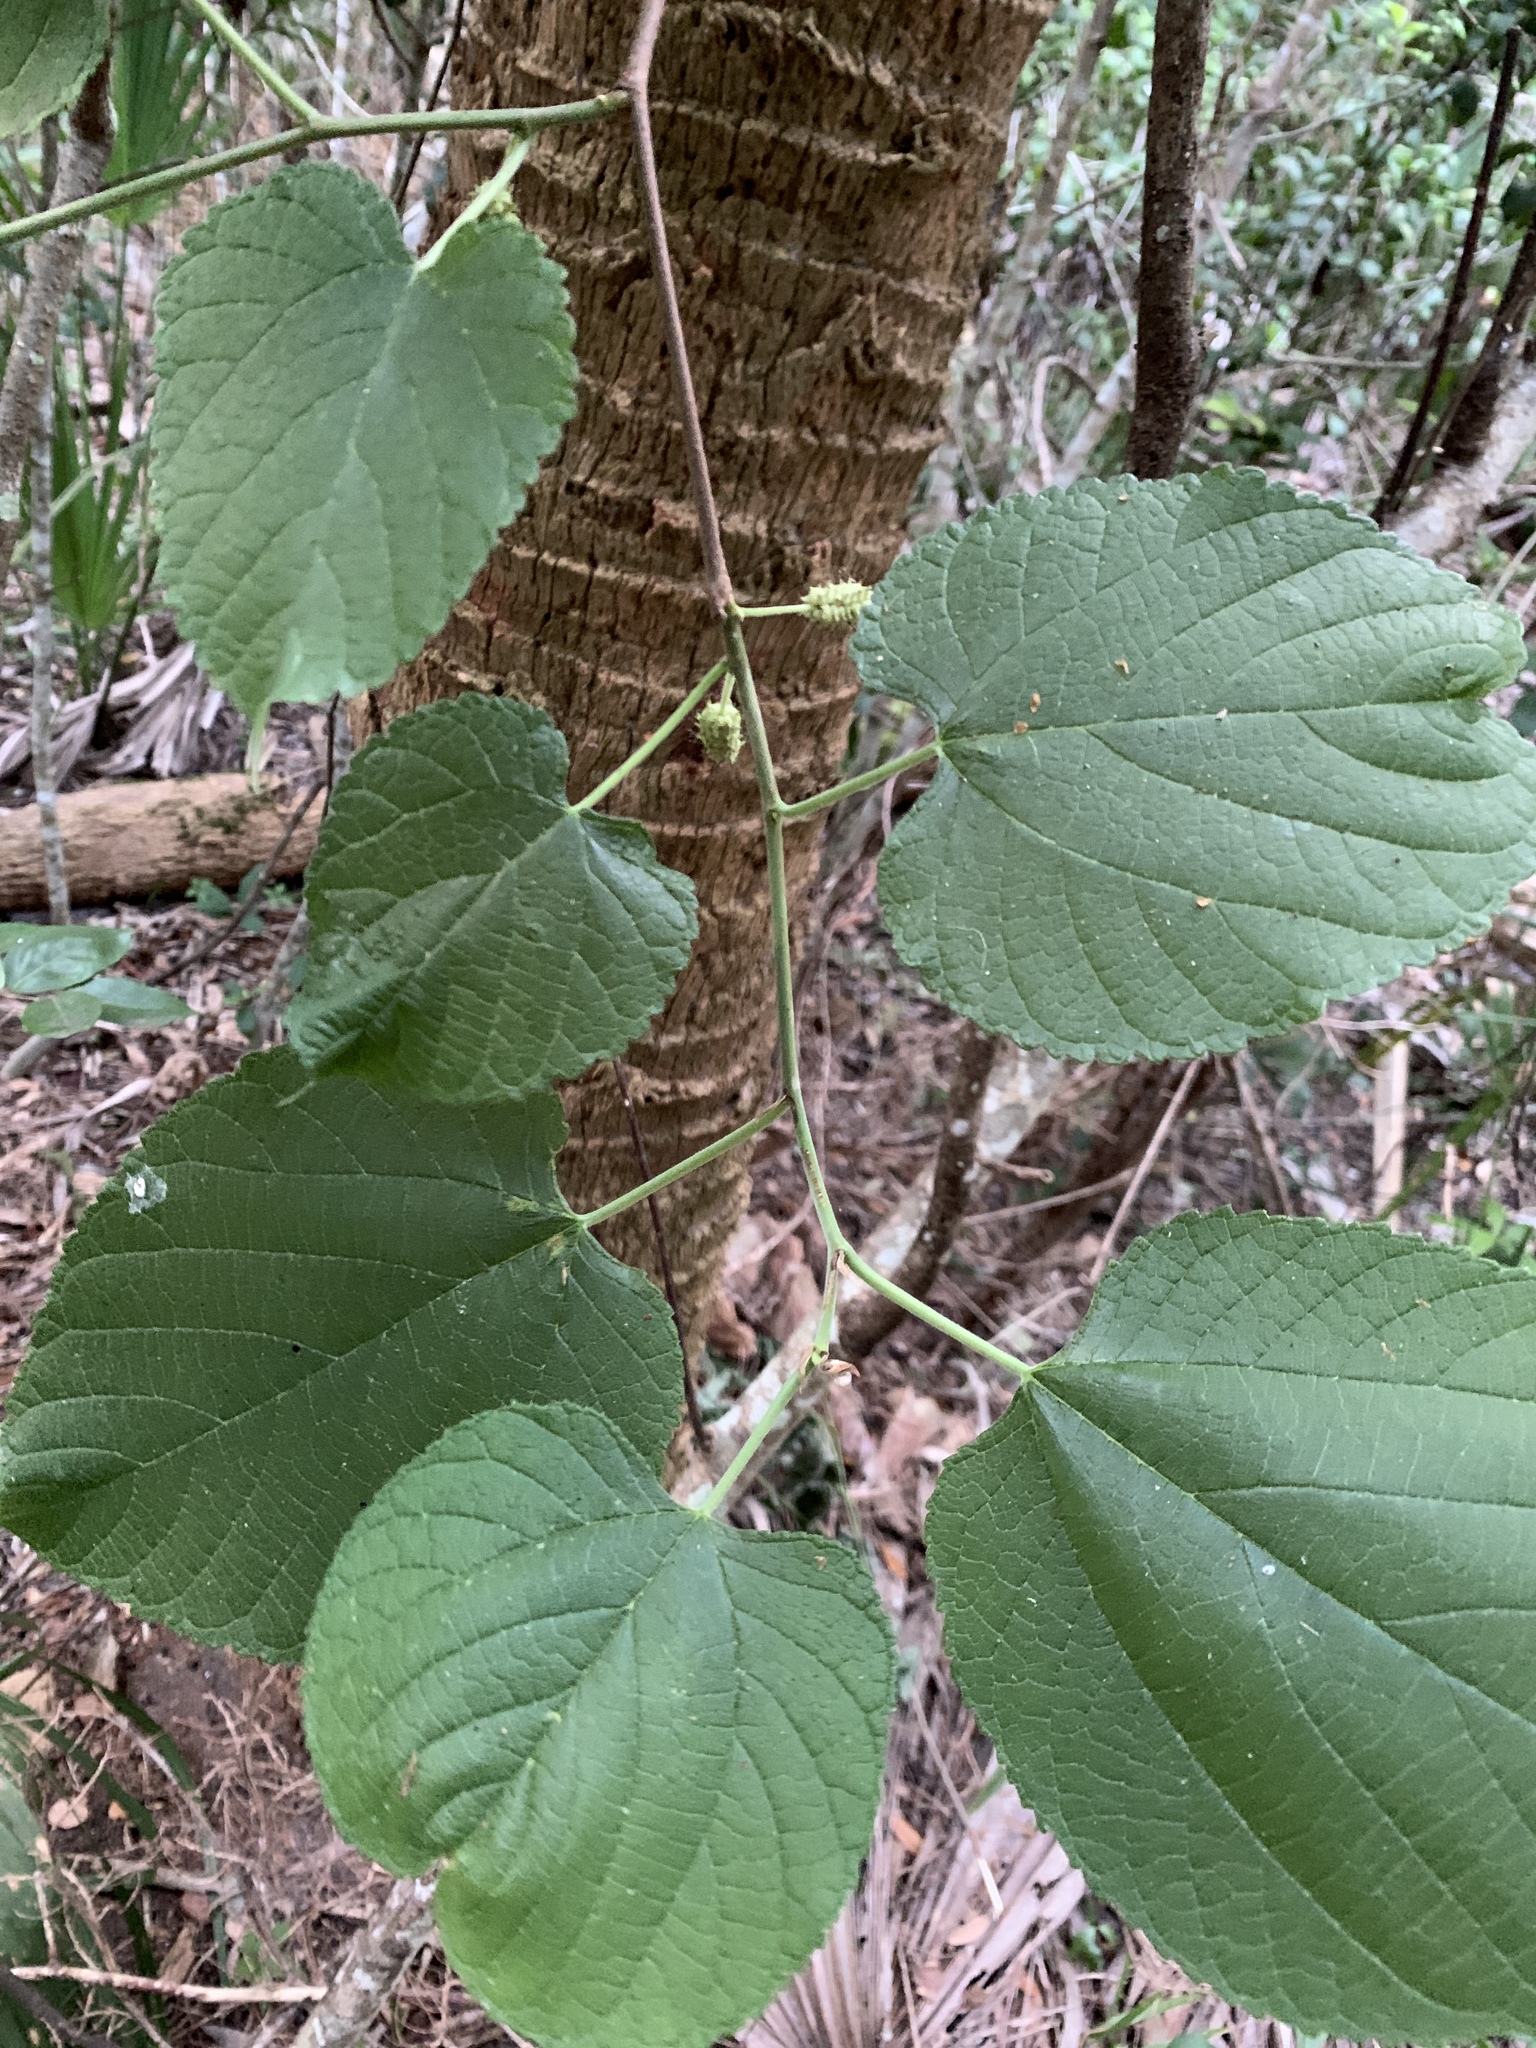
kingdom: Plantae
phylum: Tracheophyta
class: Magnoliopsida
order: Rosales
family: Moraceae
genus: Morus
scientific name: Morus rubra
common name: Red mulberry
